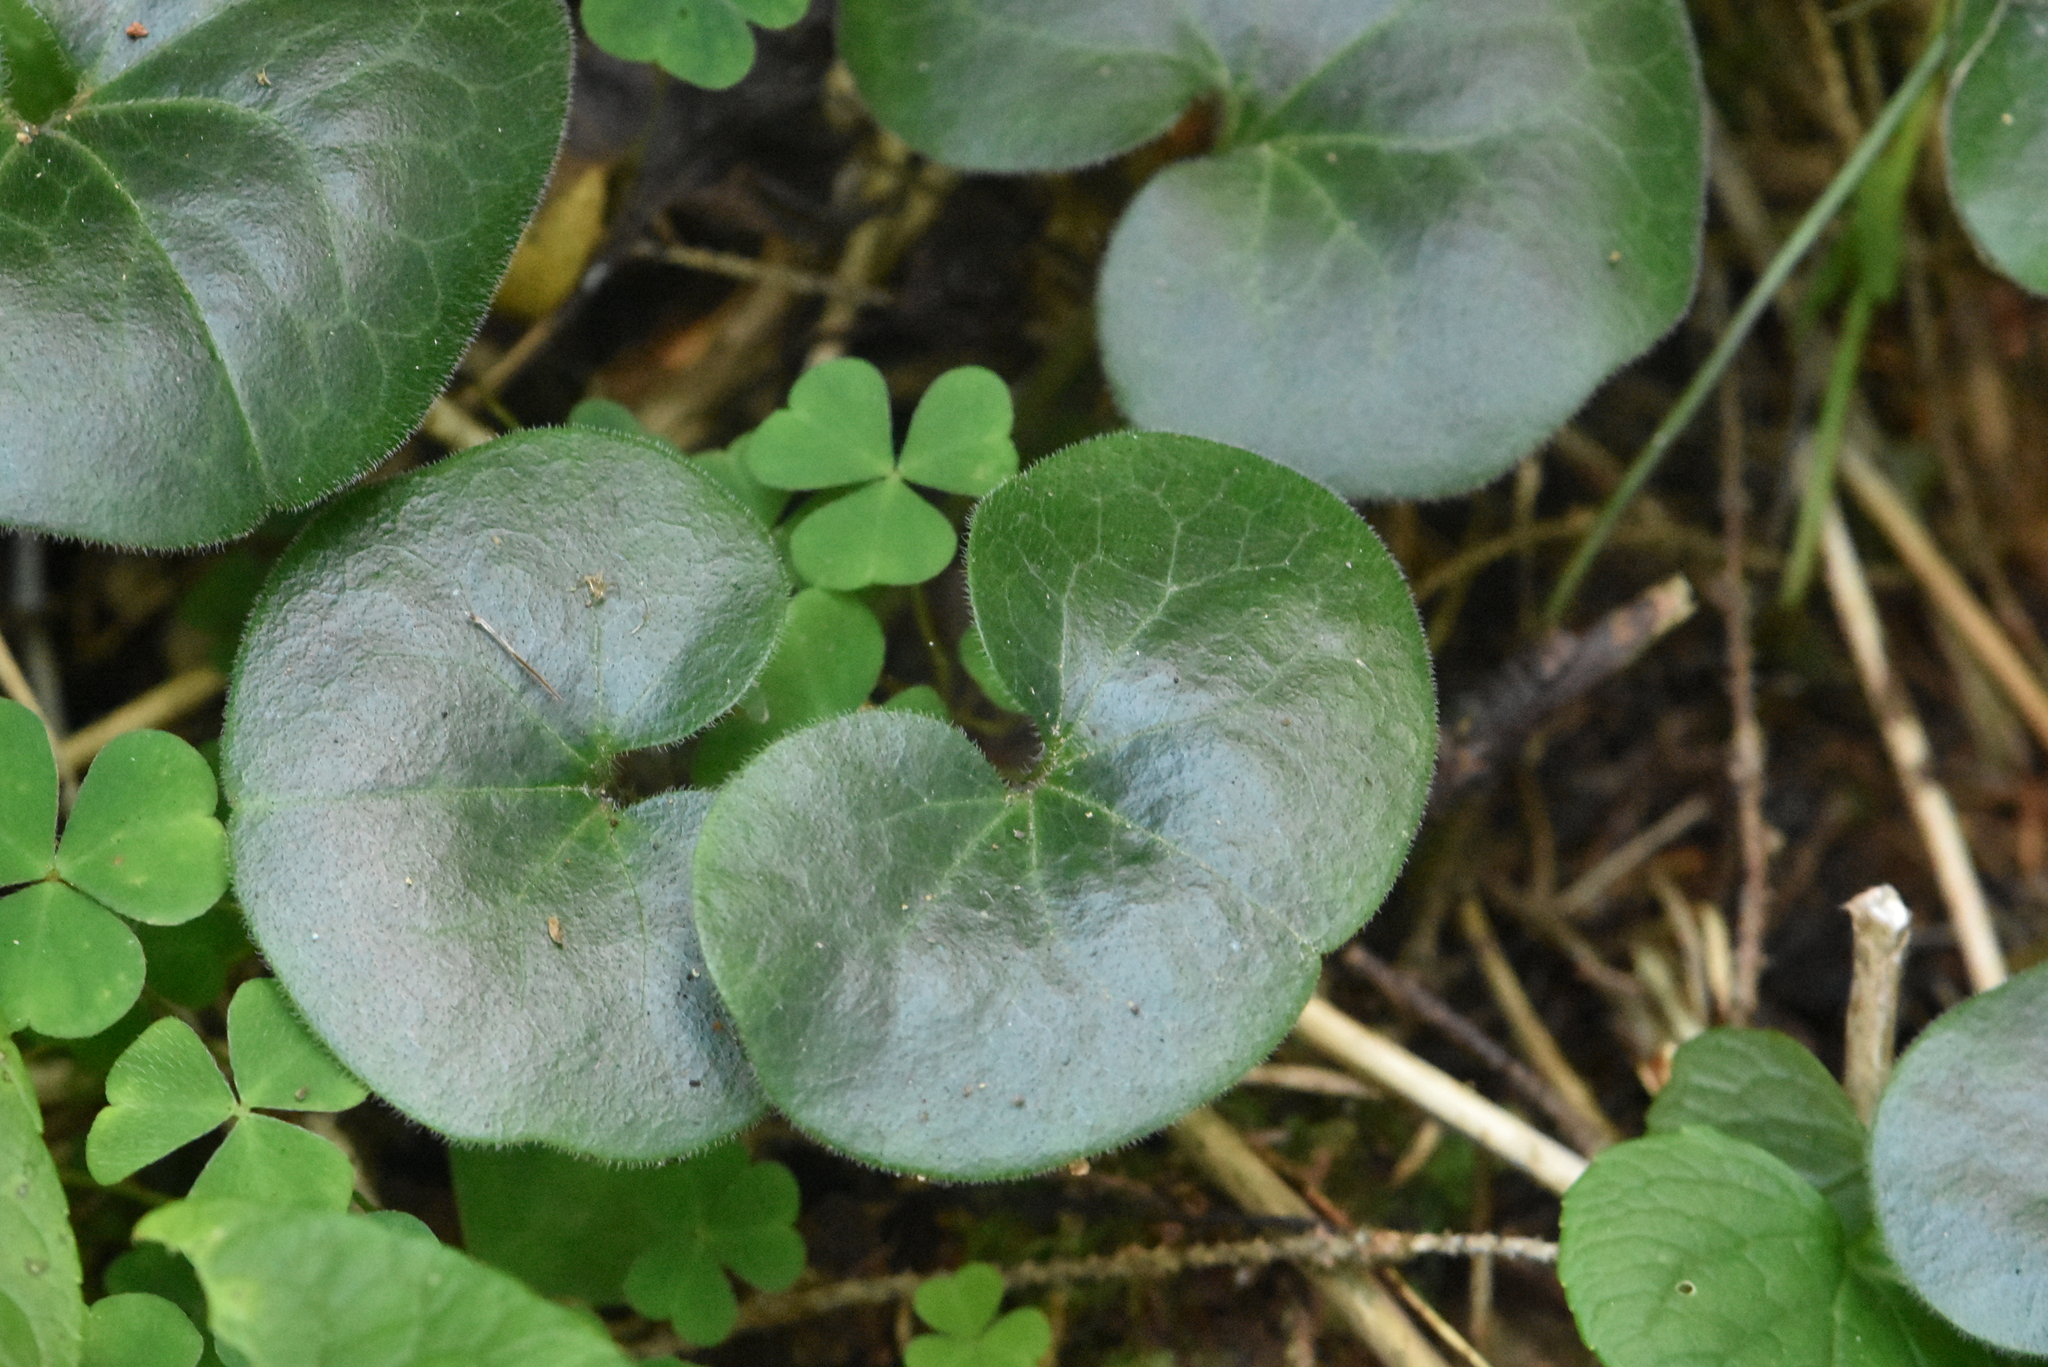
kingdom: Plantae
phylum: Tracheophyta
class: Magnoliopsida
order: Piperales
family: Aristolochiaceae
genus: Asarum
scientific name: Asarum europaeum
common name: Asarabacca
